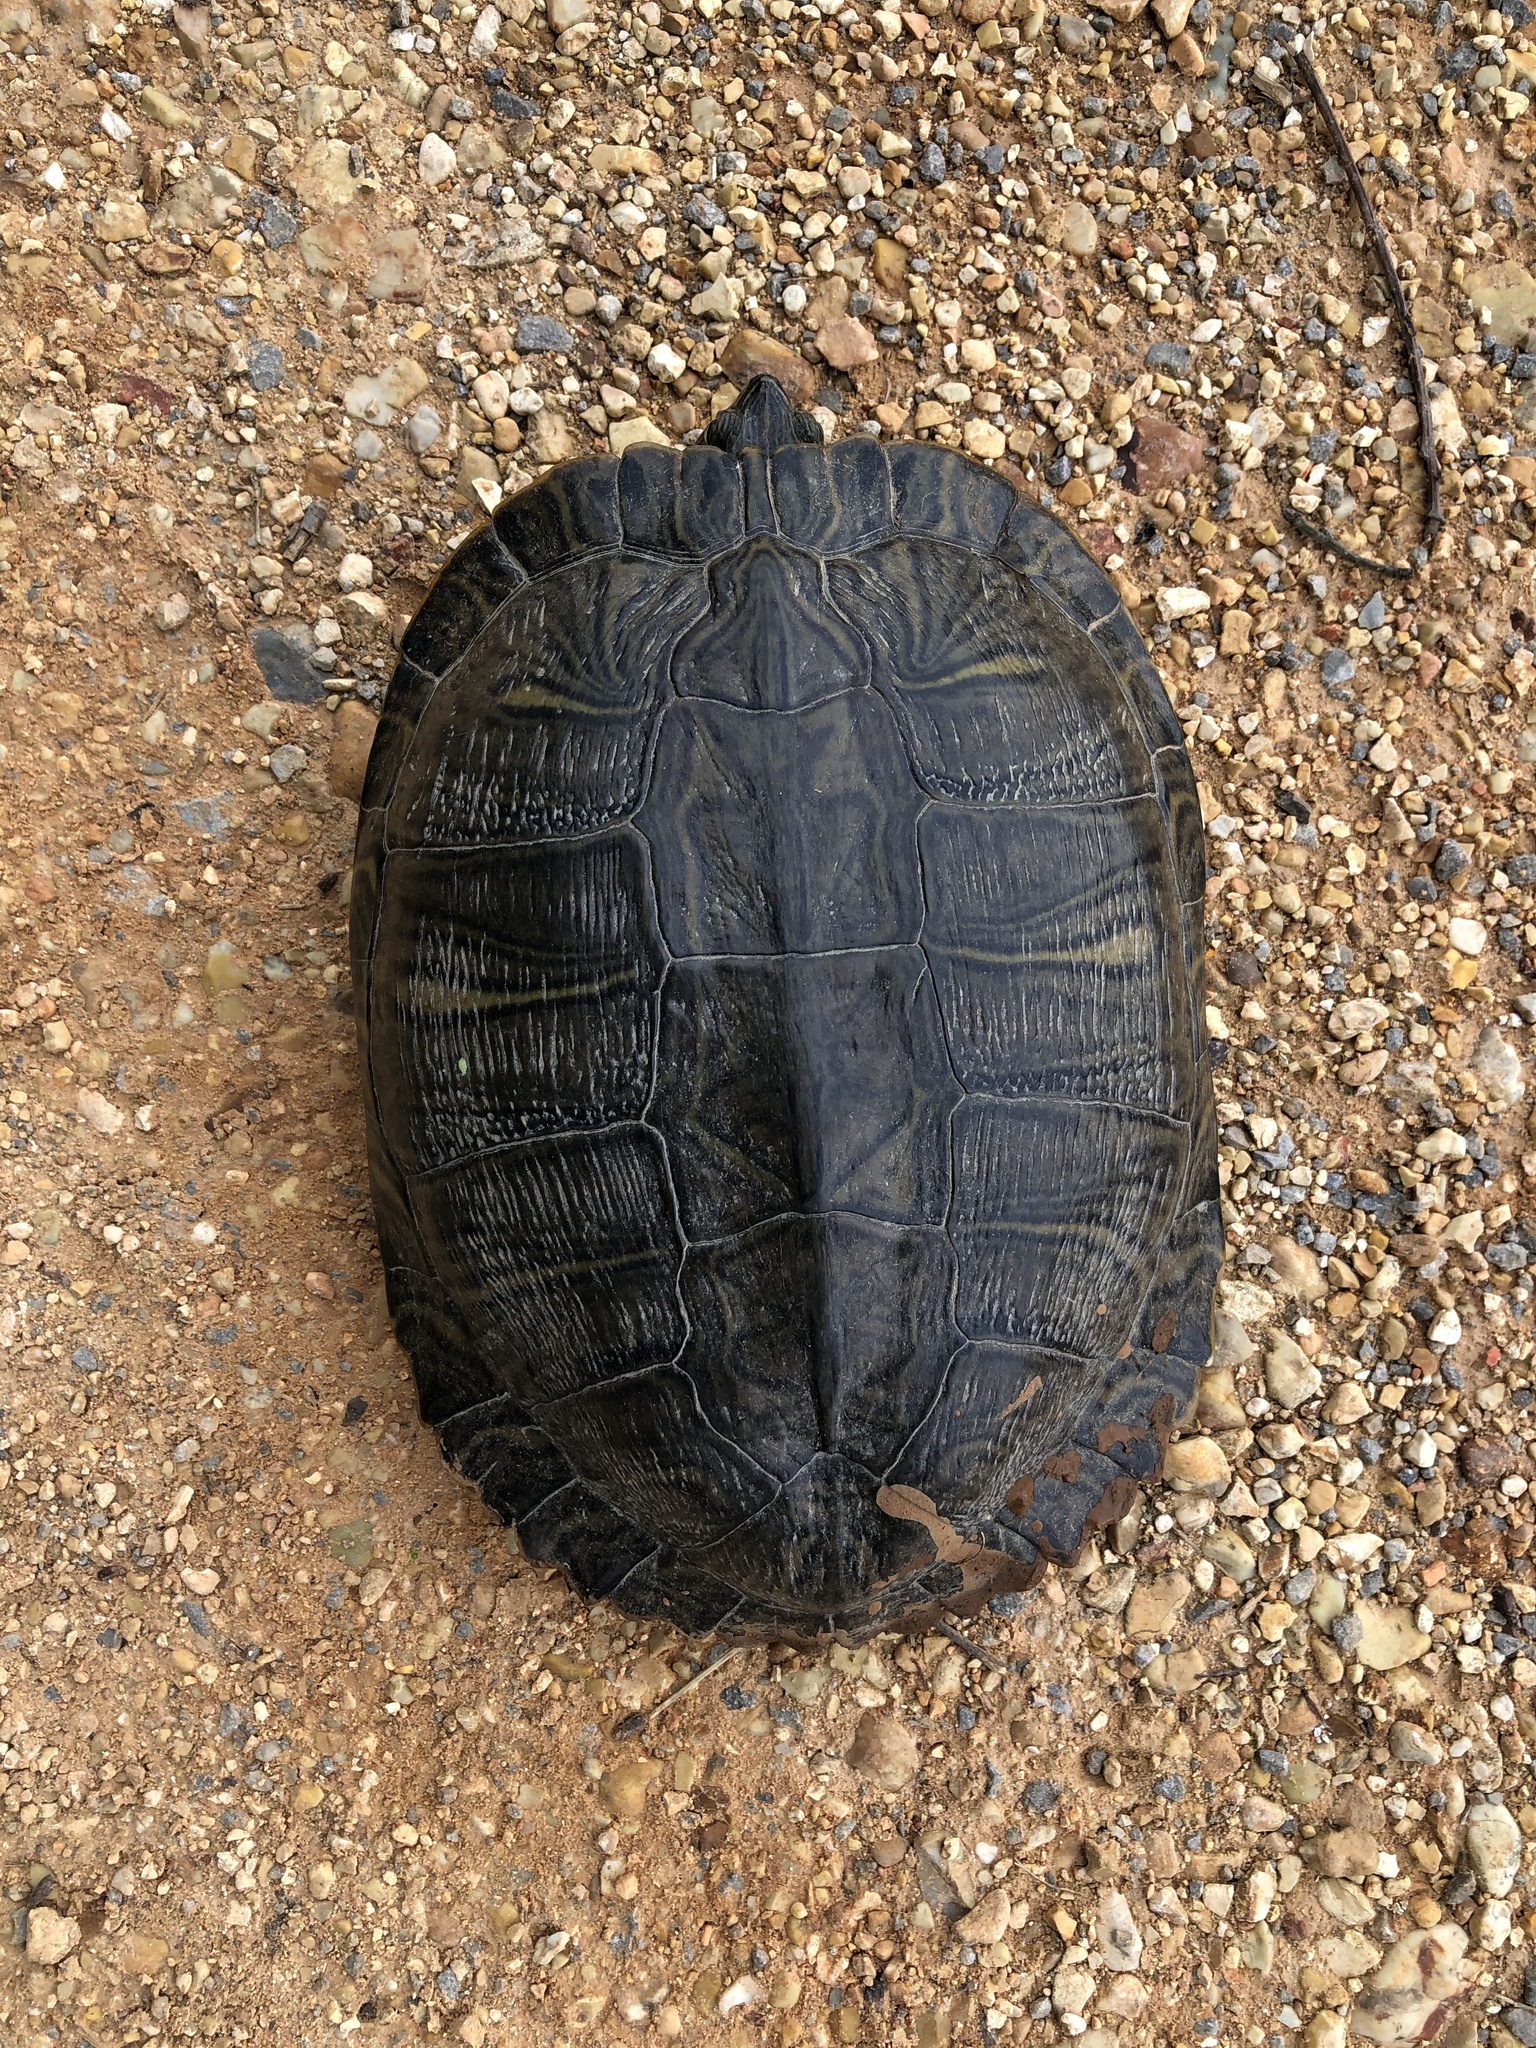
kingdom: Animalia
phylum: Chordata
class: Testudines
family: Emydidae
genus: Trachemys
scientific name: Trachemys scripta
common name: Slider
